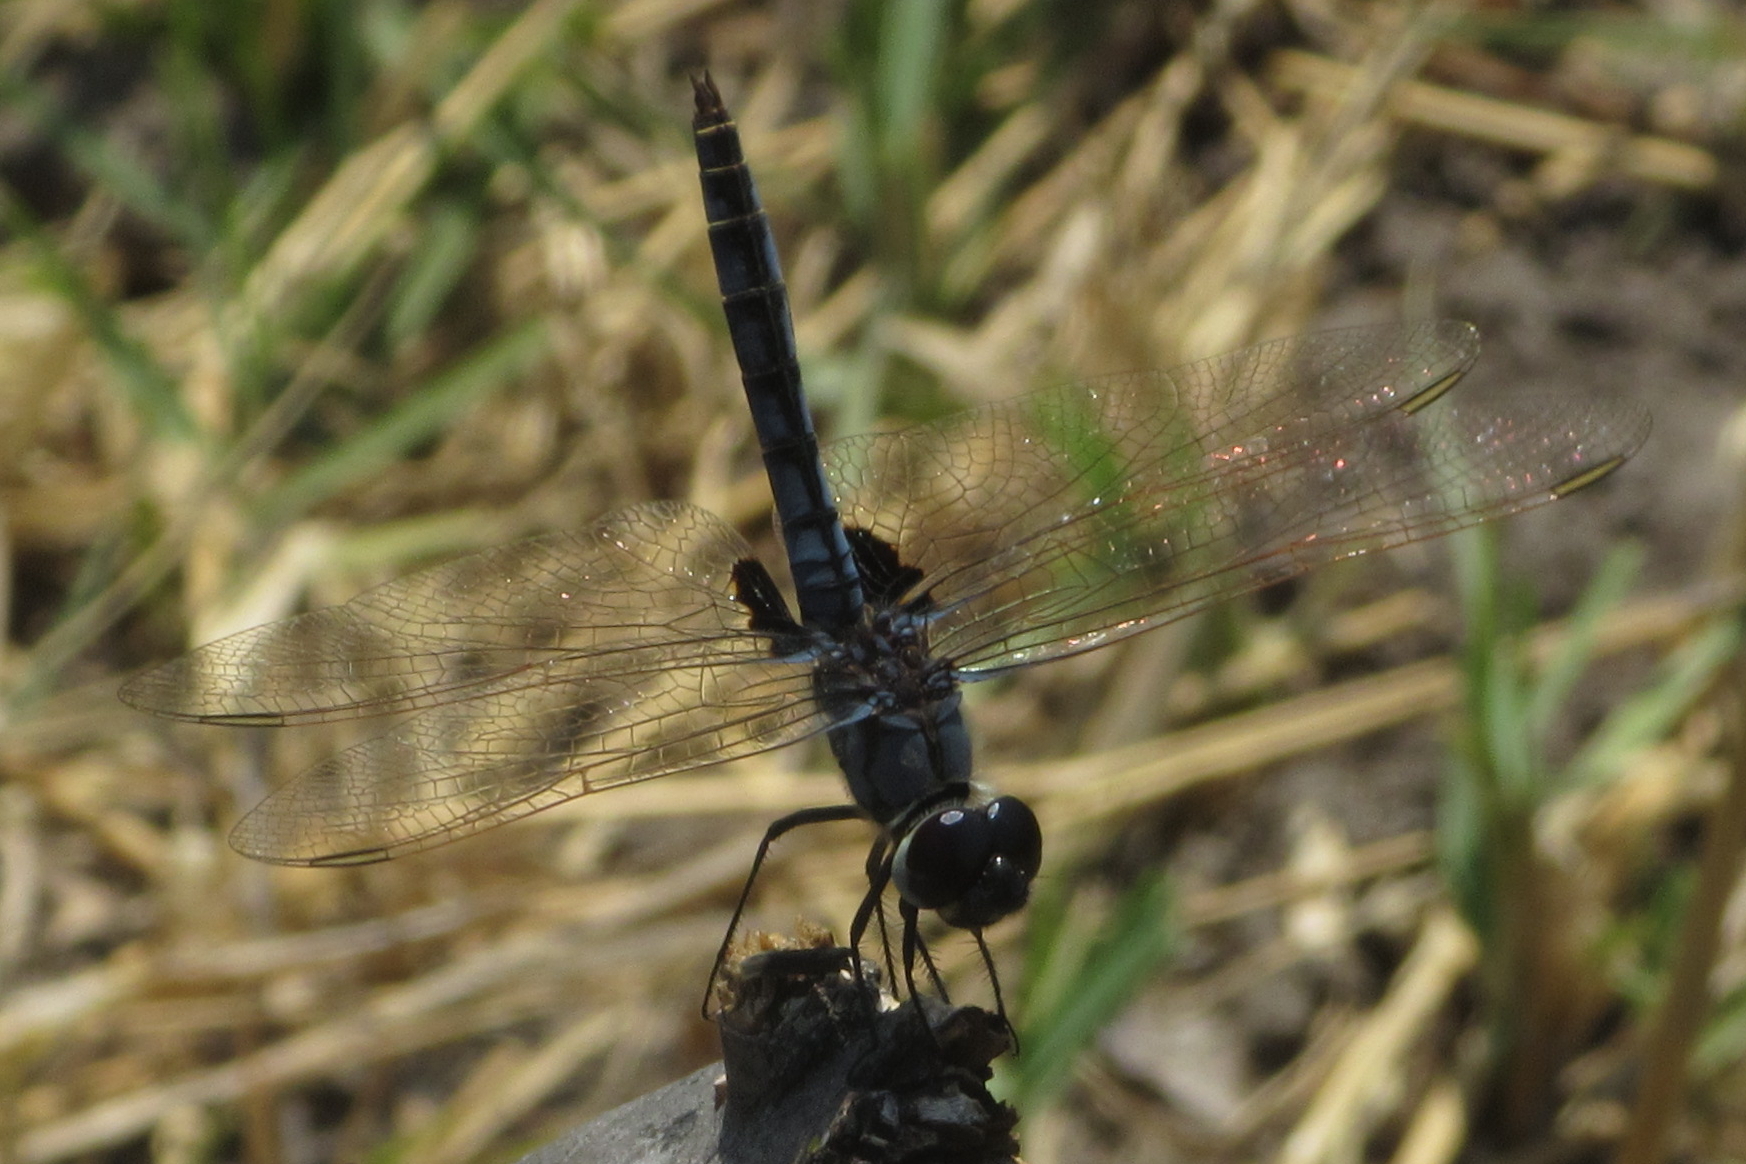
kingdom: Animalia
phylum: Arthropoda
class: Insecta
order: Odonata
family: Libellulidae
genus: Urothemis
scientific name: Urothemis edwardsii
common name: Blue basker
